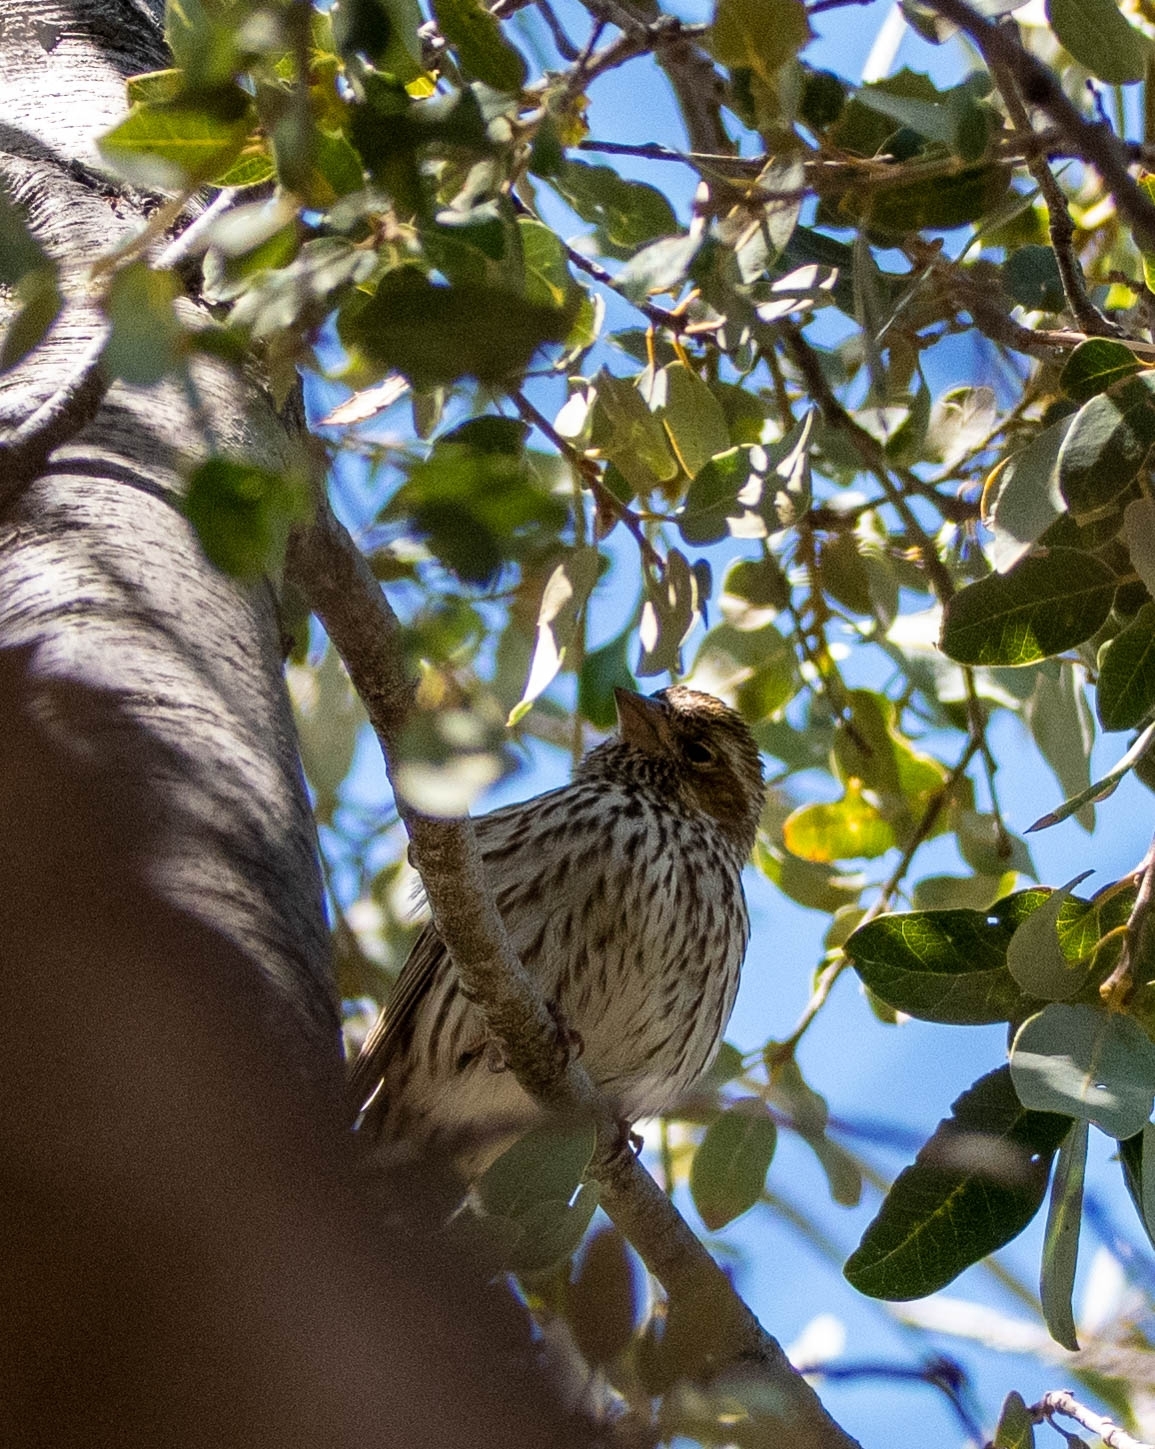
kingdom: Animalia
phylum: Chordata
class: Aves
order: Passeriformes
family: Fringillidae
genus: Haemorhous
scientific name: Haemorhous cassinii
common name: Cassin's finch
